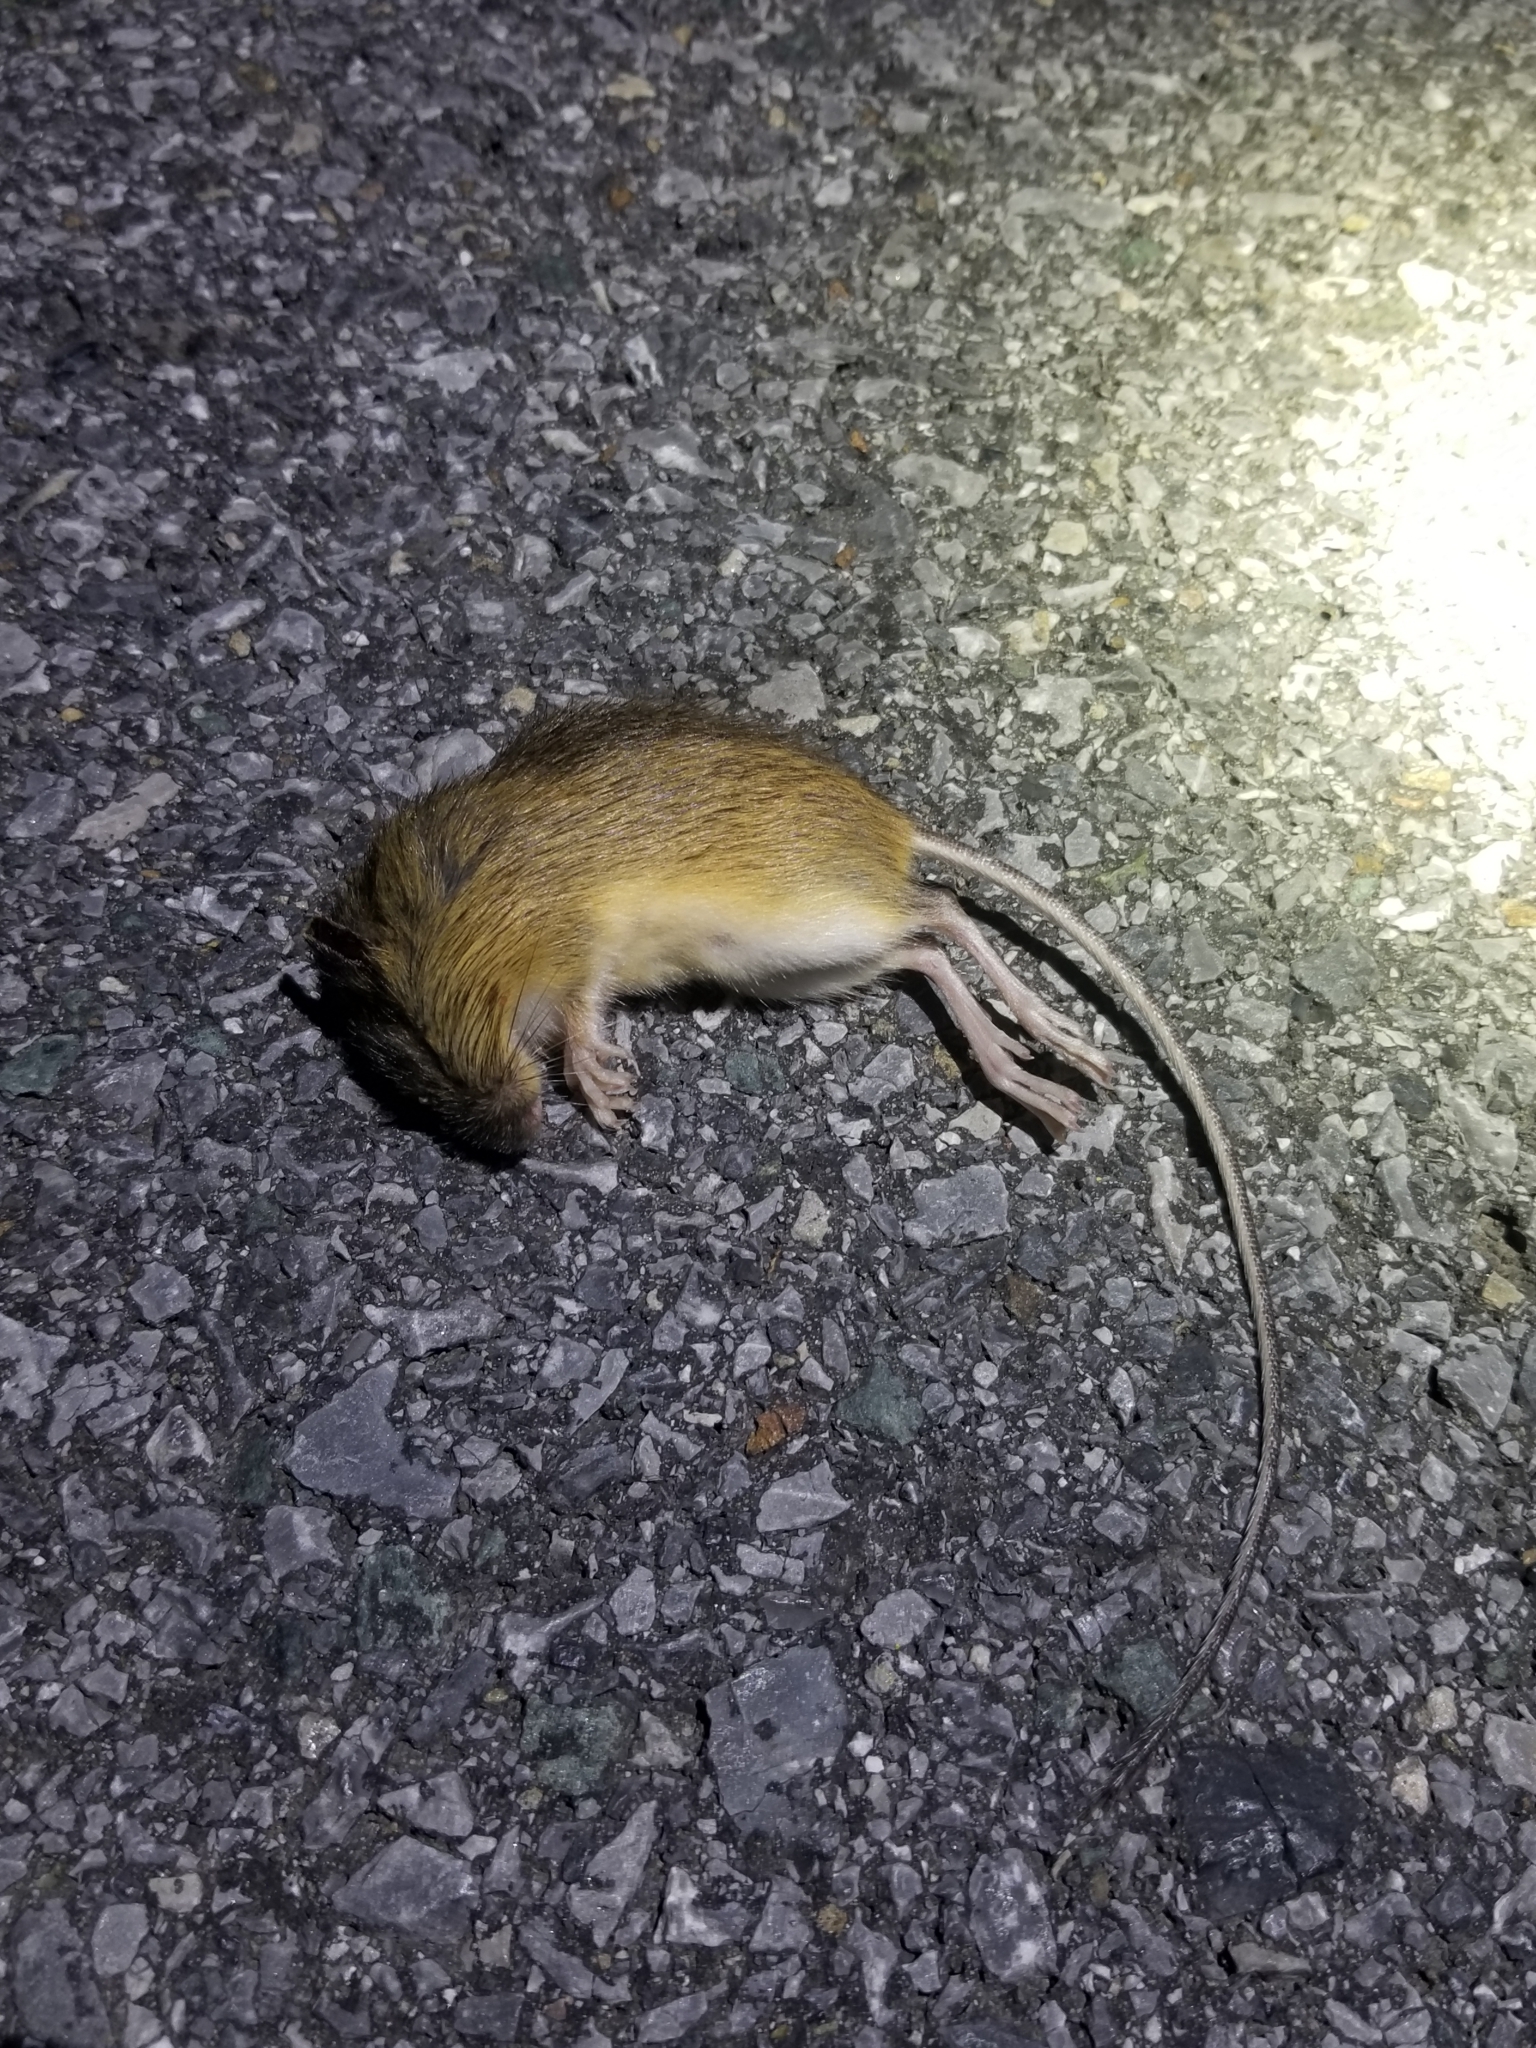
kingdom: Animalia
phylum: Chordata
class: Mammalia
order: Rodentia
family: Dipodidae
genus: Zapus
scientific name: Zapus hudsonius
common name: Meadow jumping mouse
